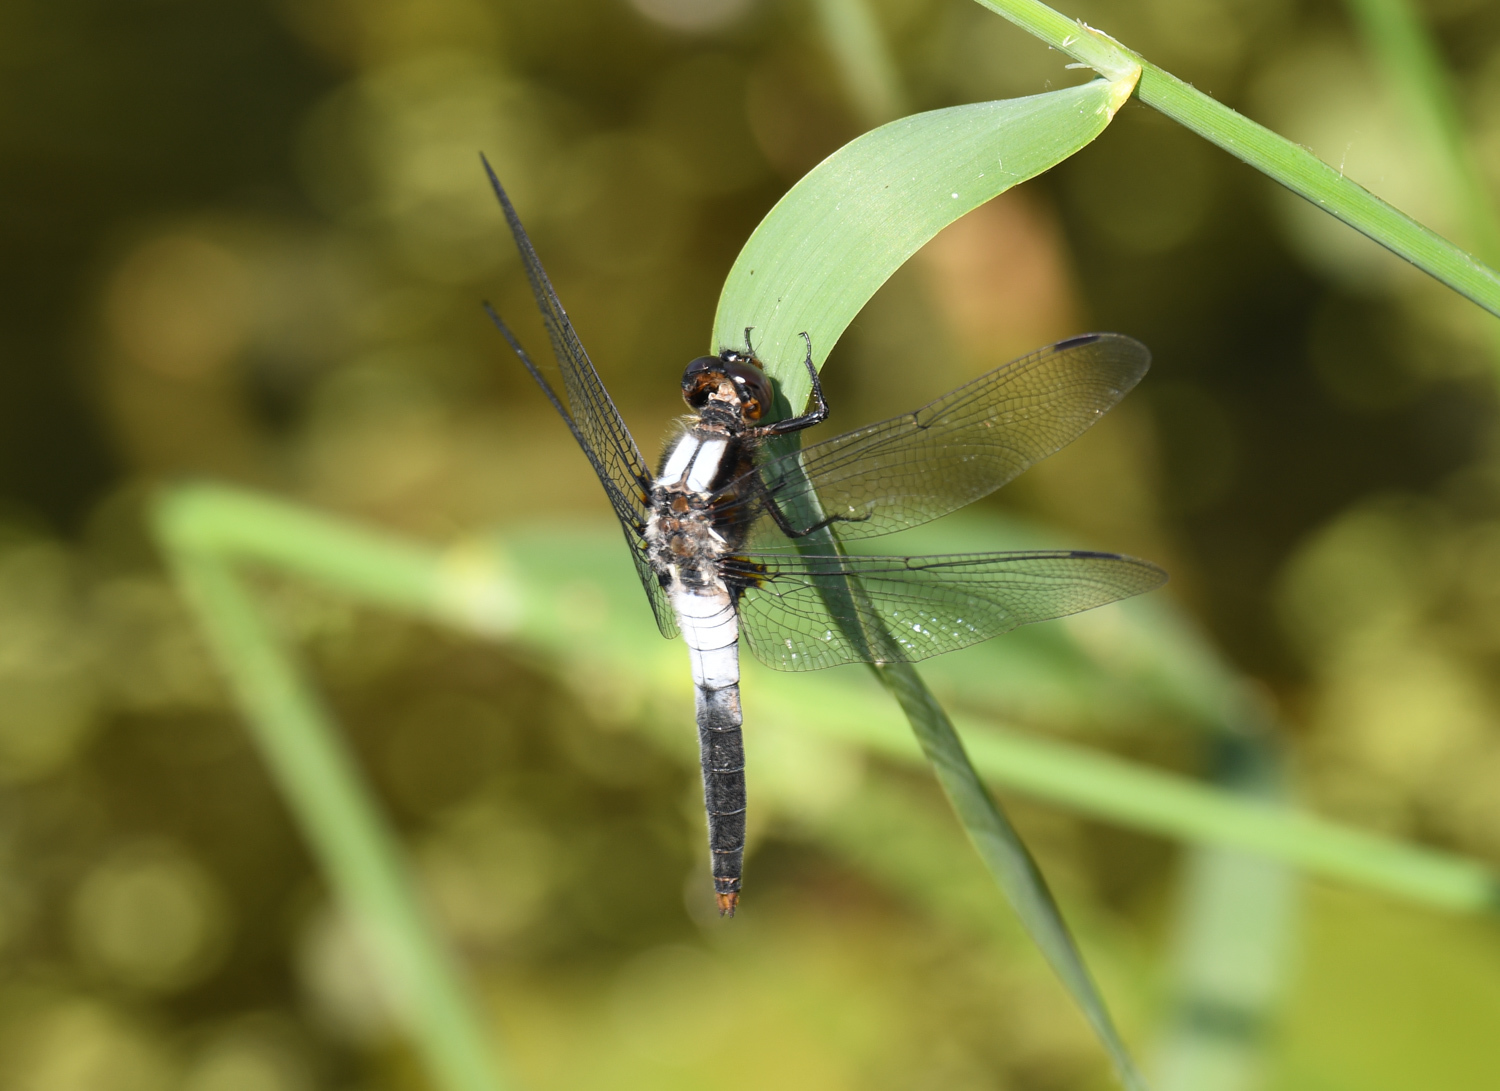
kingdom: Animalia
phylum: Arthropoda
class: Insecta
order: Odonata
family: Libellulidae
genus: Ladona
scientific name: Ladona julia
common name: Chalk-fronted corporal
